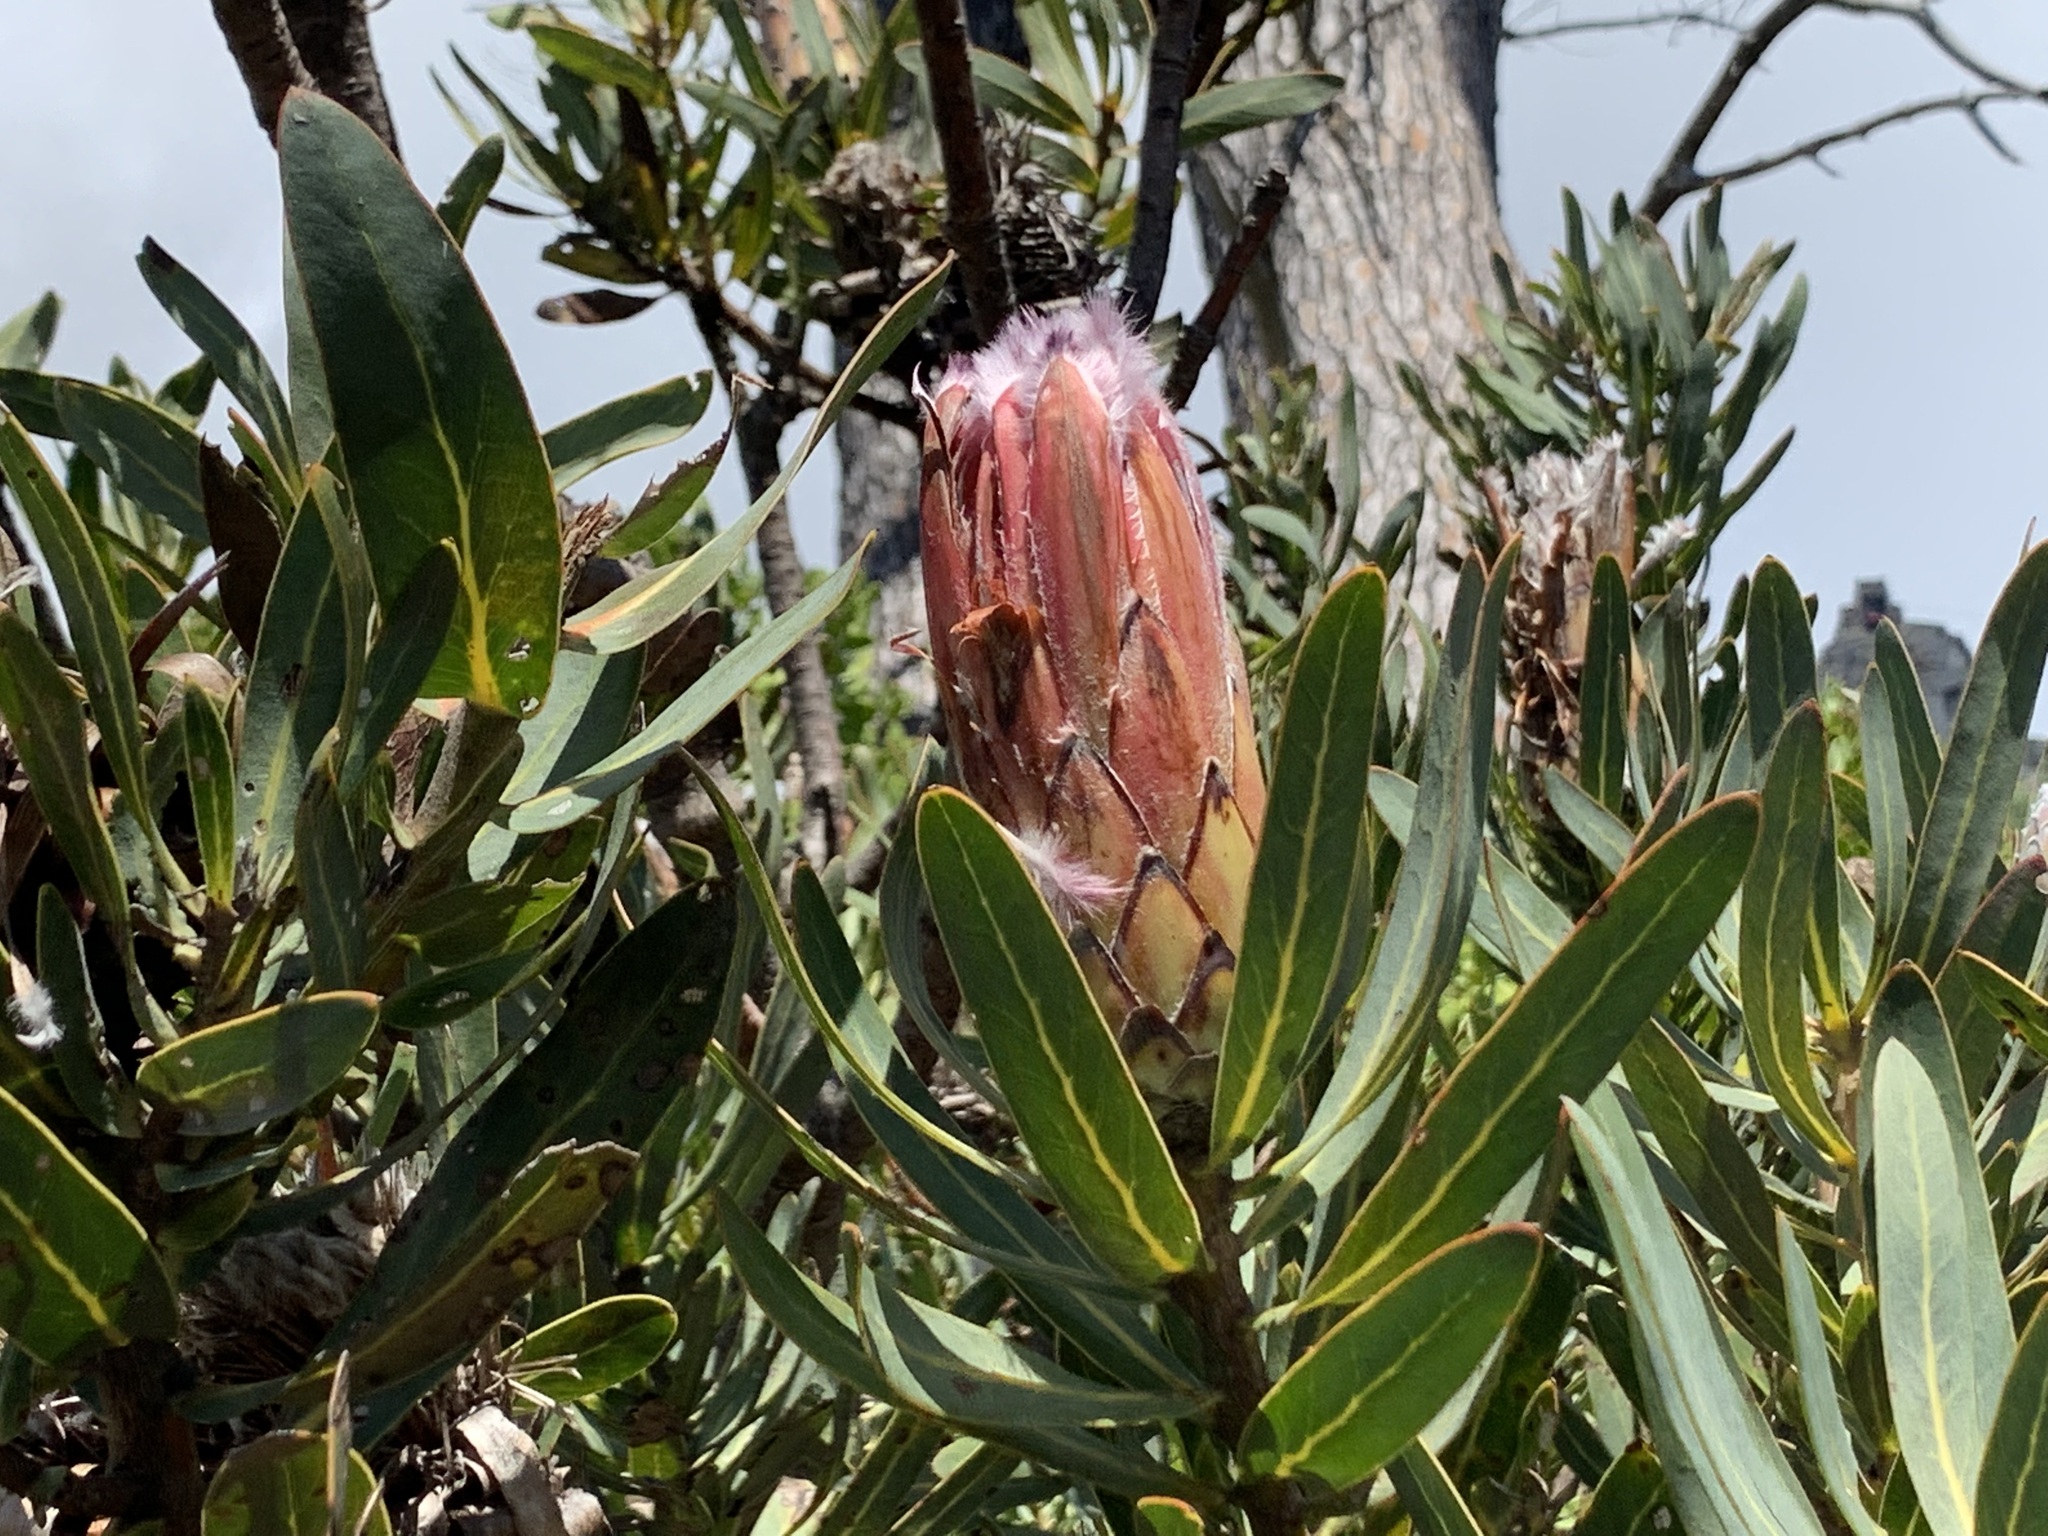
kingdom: Plantae
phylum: Tracheophyta
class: Magnoliopsida
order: Proteales
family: Proteaceae
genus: Protea
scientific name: Protea laurifolia
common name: Grey-leaf sugarbsh
